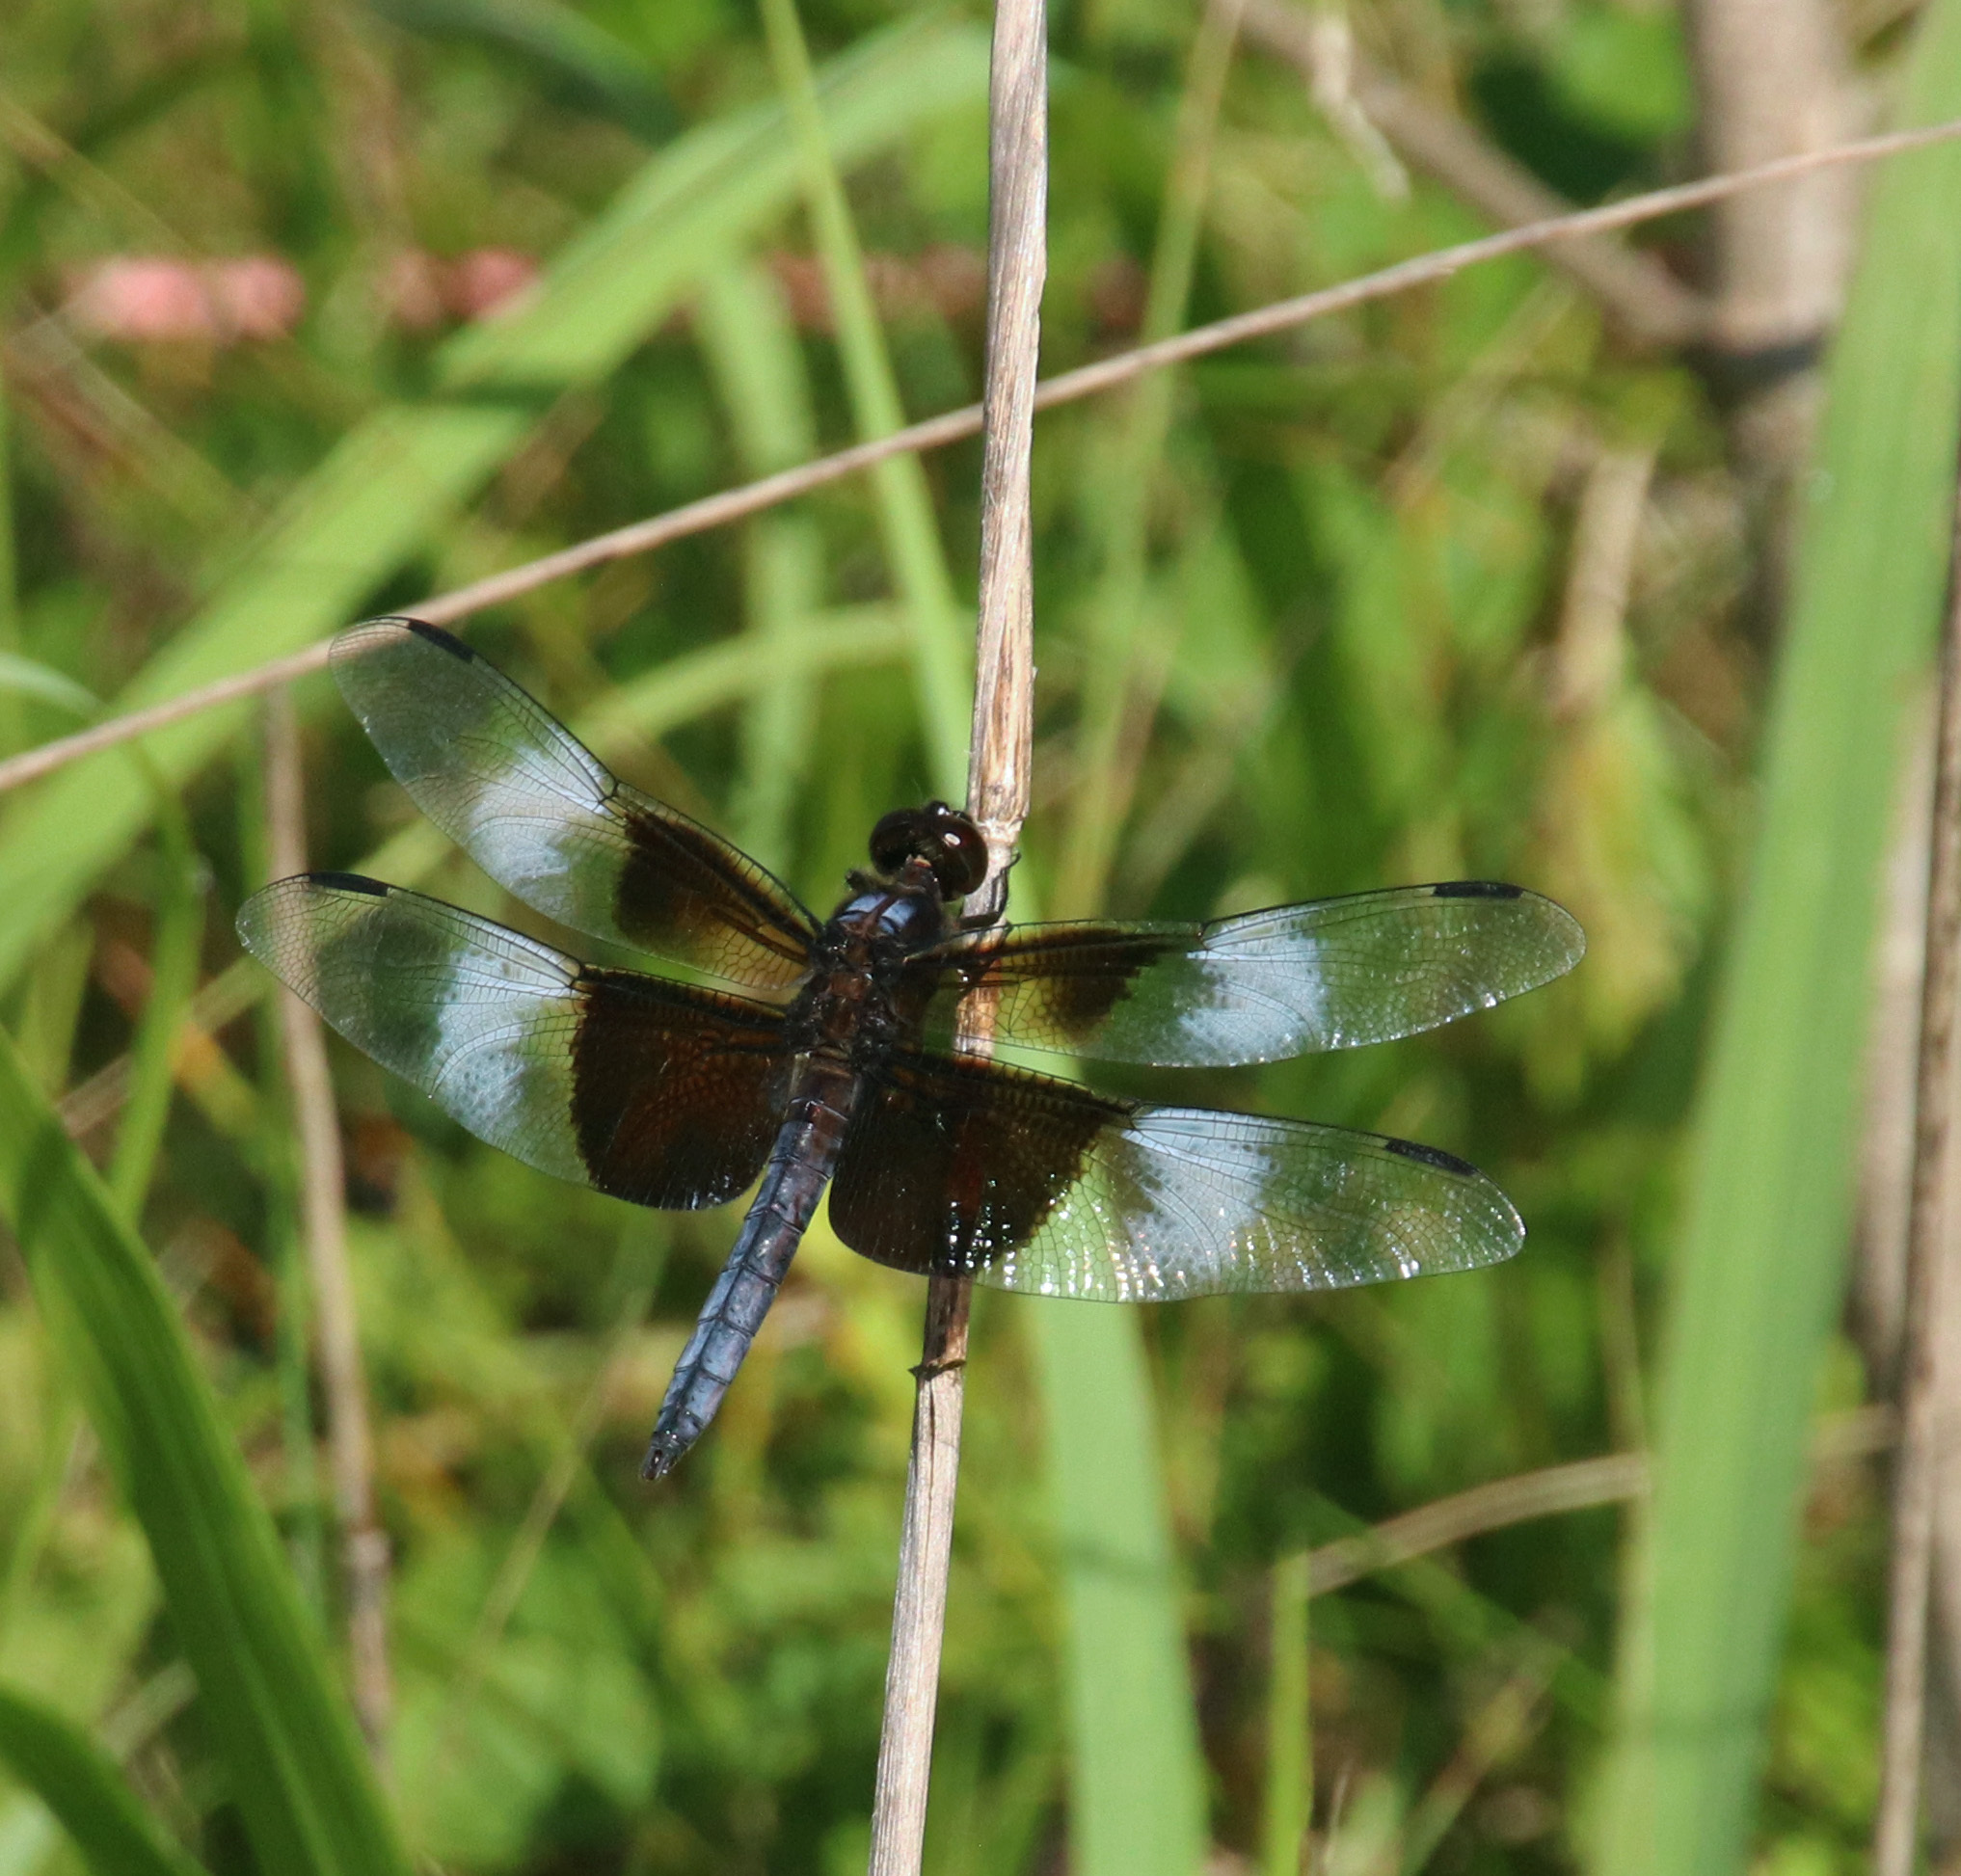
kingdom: Animalia
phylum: Arthropoda
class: Insecta
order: Odonata
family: Libellulidae
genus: Libellula
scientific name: Libellula luctuosa
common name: Widow skimmer
